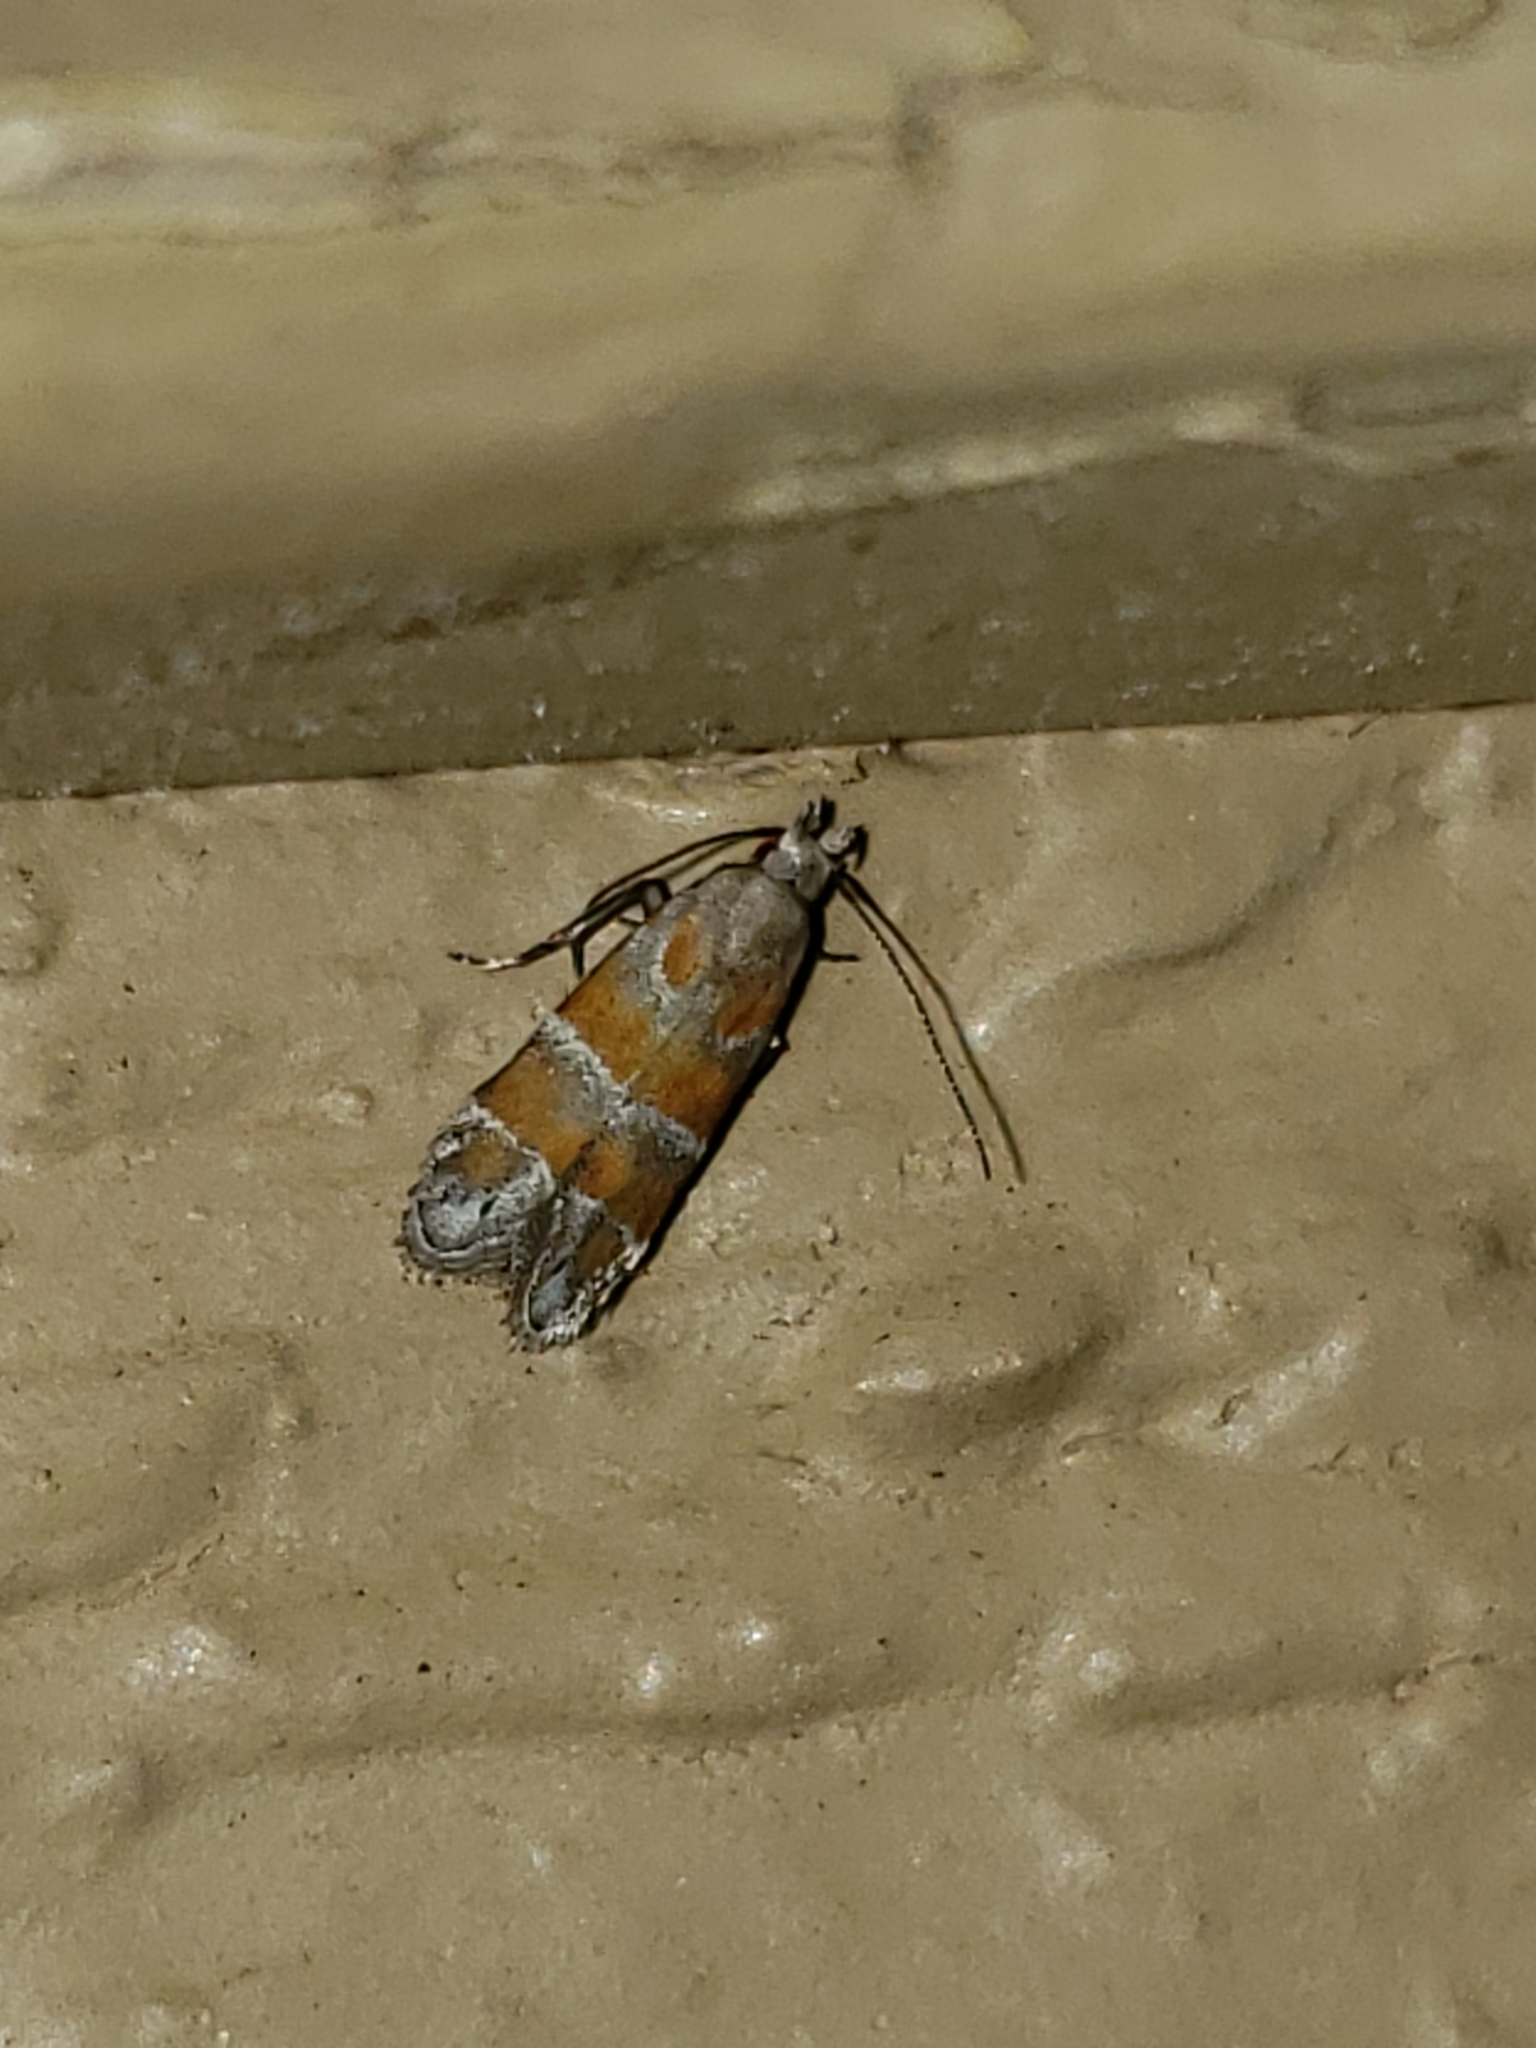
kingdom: Animalia
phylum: Arthropoda
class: Insecta
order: Lepidoptera
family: Gelechiidae
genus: Battaristis
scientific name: Battaristis vittella
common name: Orange stripe-backed moth
